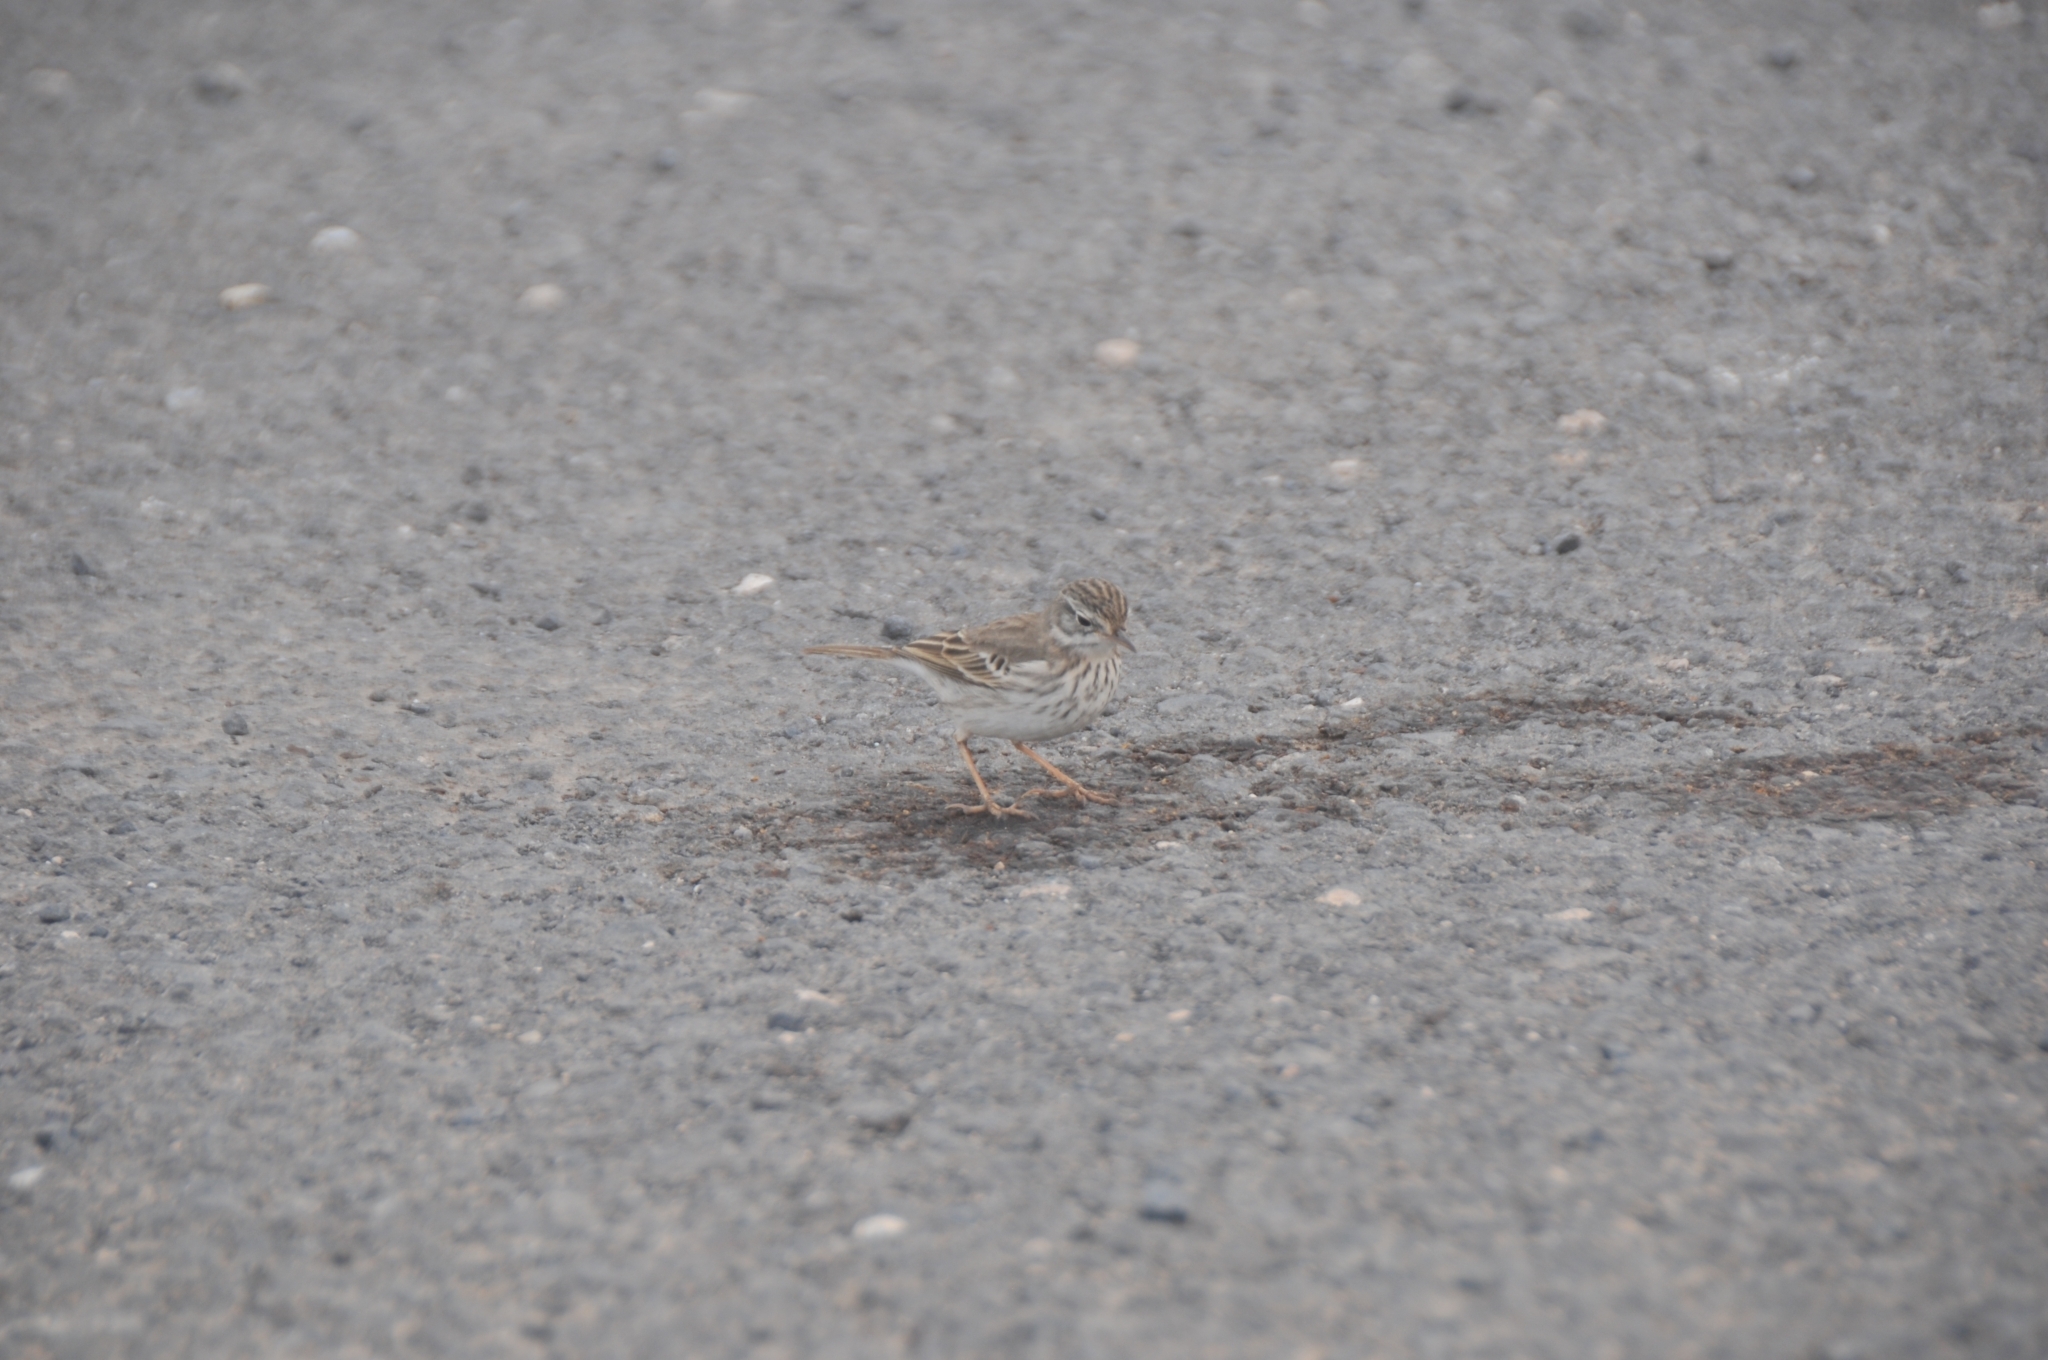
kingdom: Animalia
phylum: Chordata
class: Aves
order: Passeriformes
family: Motacillidae
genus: Anthus
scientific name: Anthus berthelotii
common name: Berthelot's pipit
